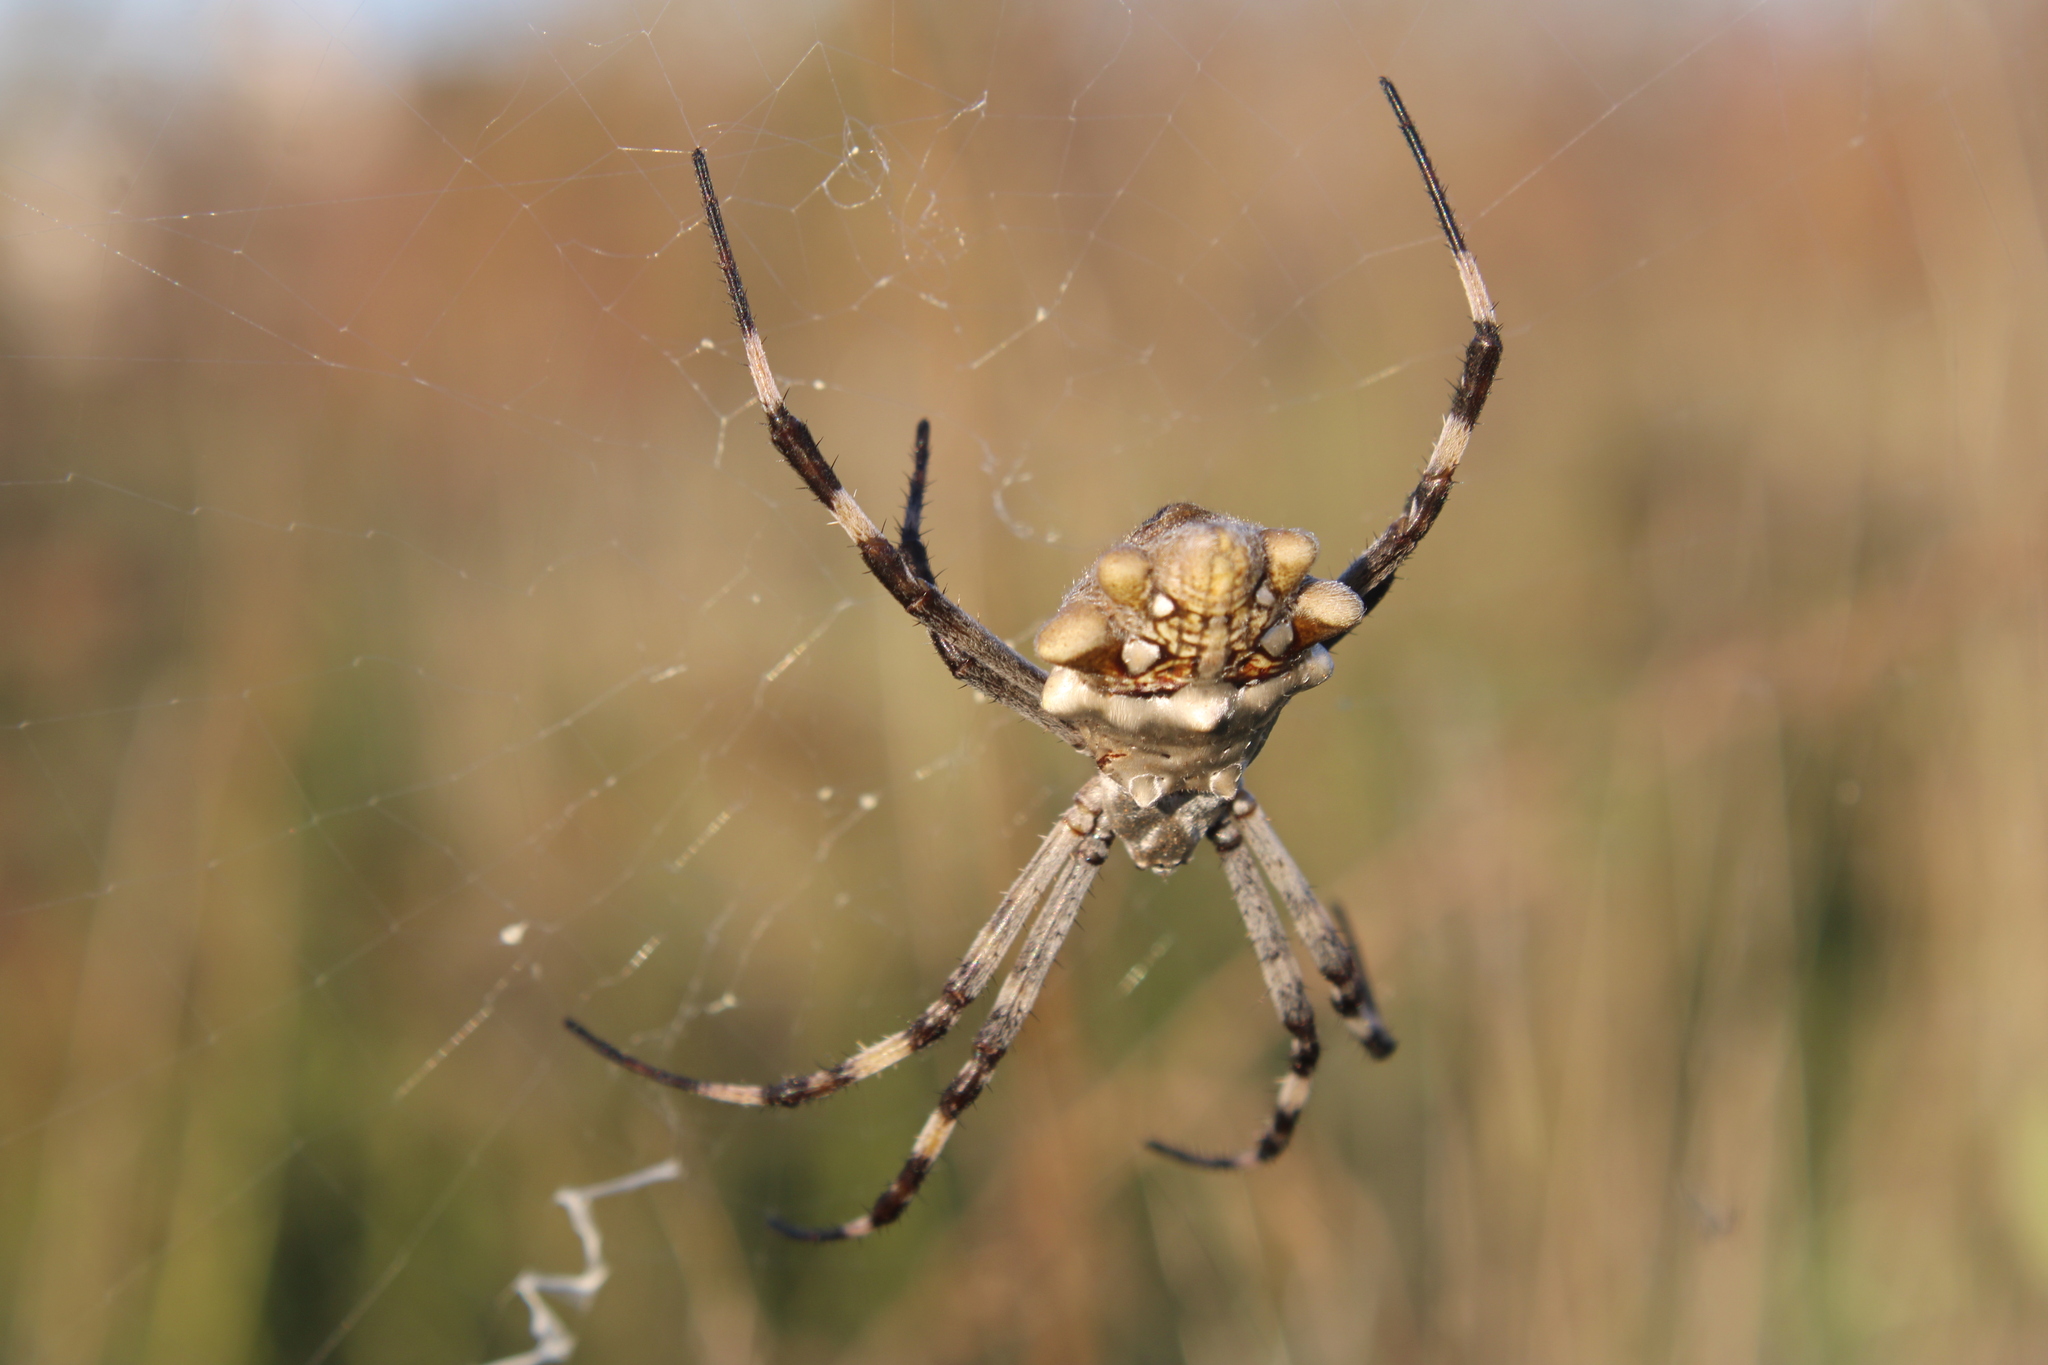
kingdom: Animalia
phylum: Arthropoda
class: Arachnida
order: Araneae
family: Araneidae
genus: Argiope
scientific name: Argiope argentata
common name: Orb weavers
